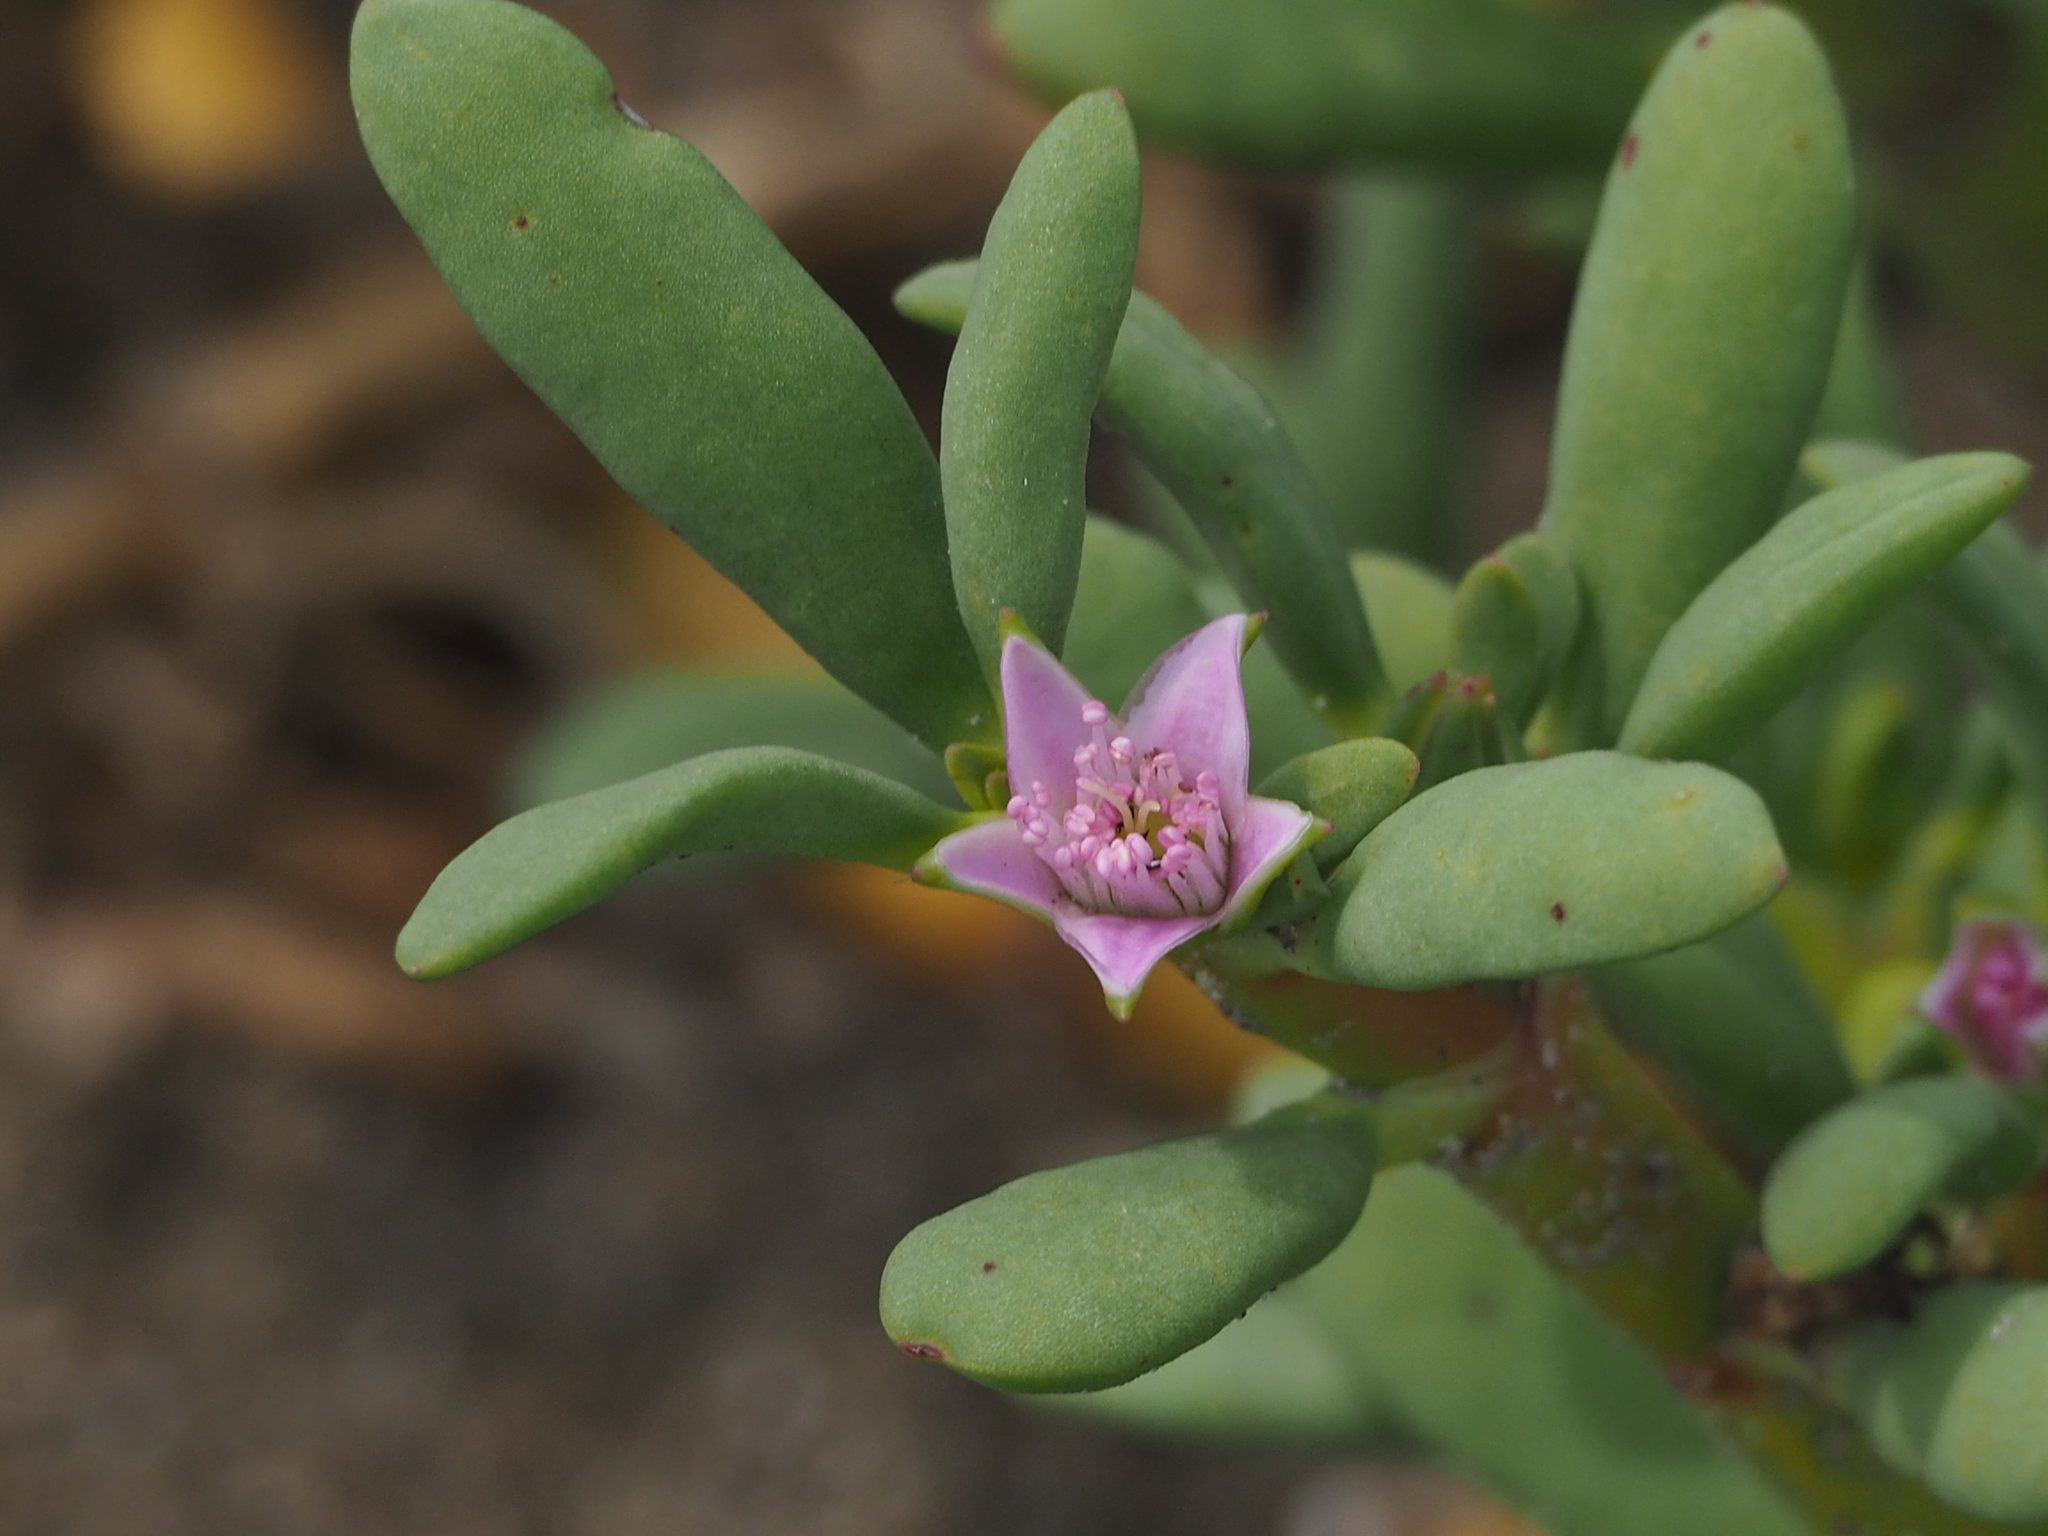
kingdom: Plantae
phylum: Tracheophyta
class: Magnoliopsida
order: Caryophyllales
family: Aizoaceae
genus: Sesuvium
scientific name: Sesuvium portulacastrum
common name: Sea-purslane
